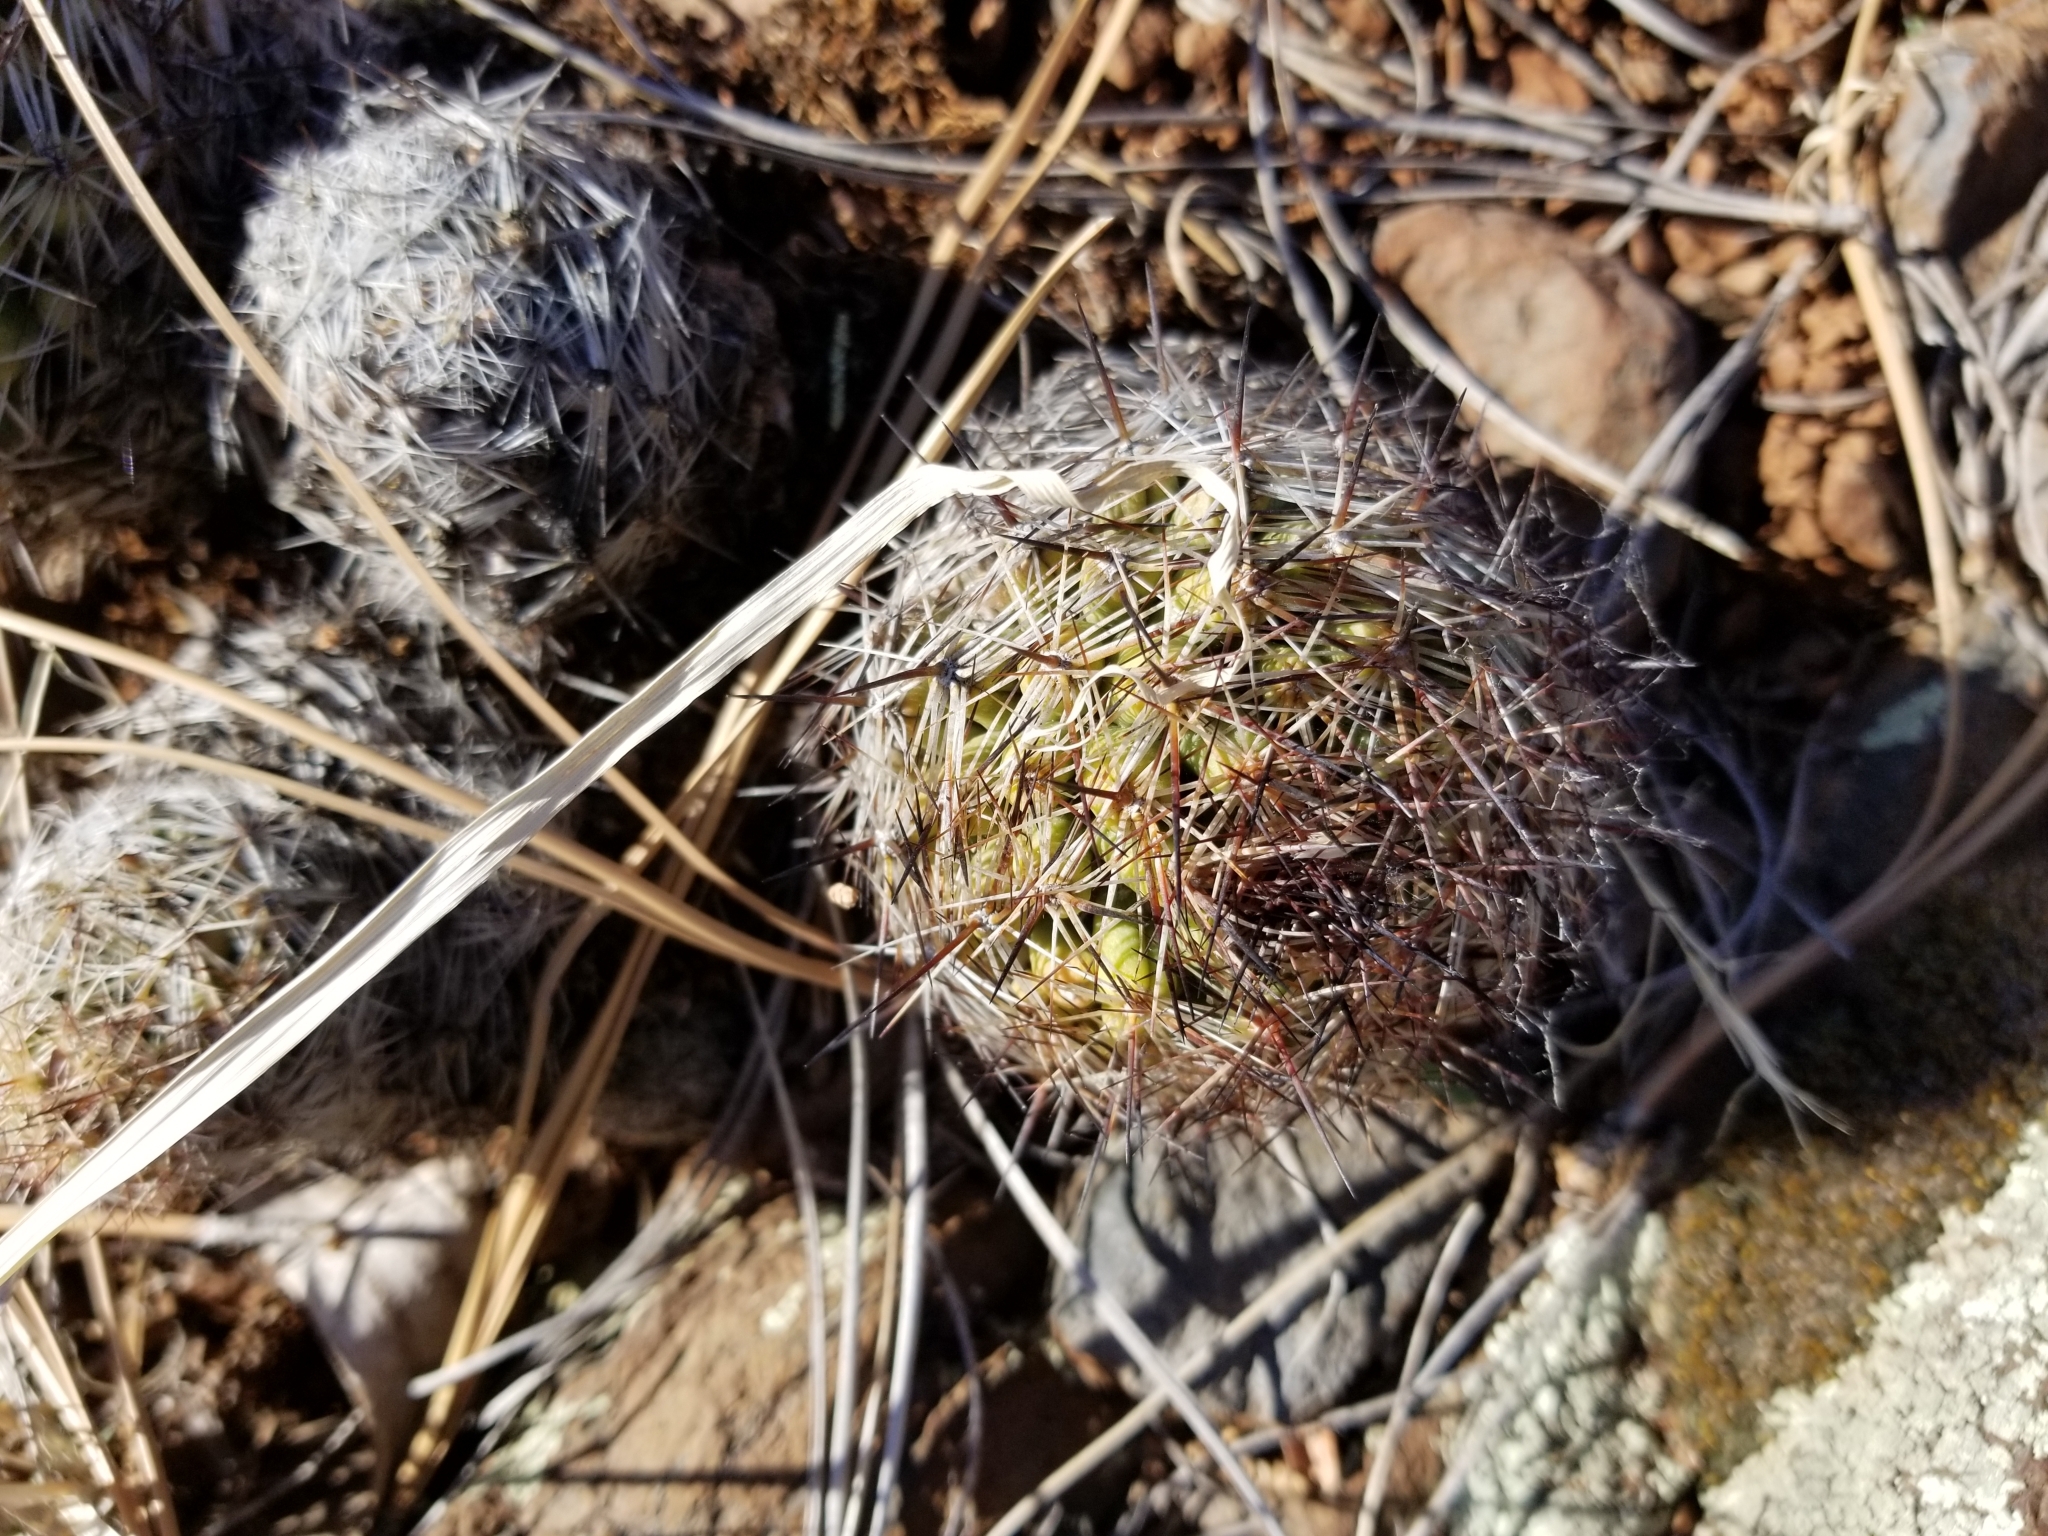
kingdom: Plantae
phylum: Tracheophyta
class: Magnoliopsida
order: Caryophyllales
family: Cactaceae
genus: Pelecyphora
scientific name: Pelecyphora vivipara
